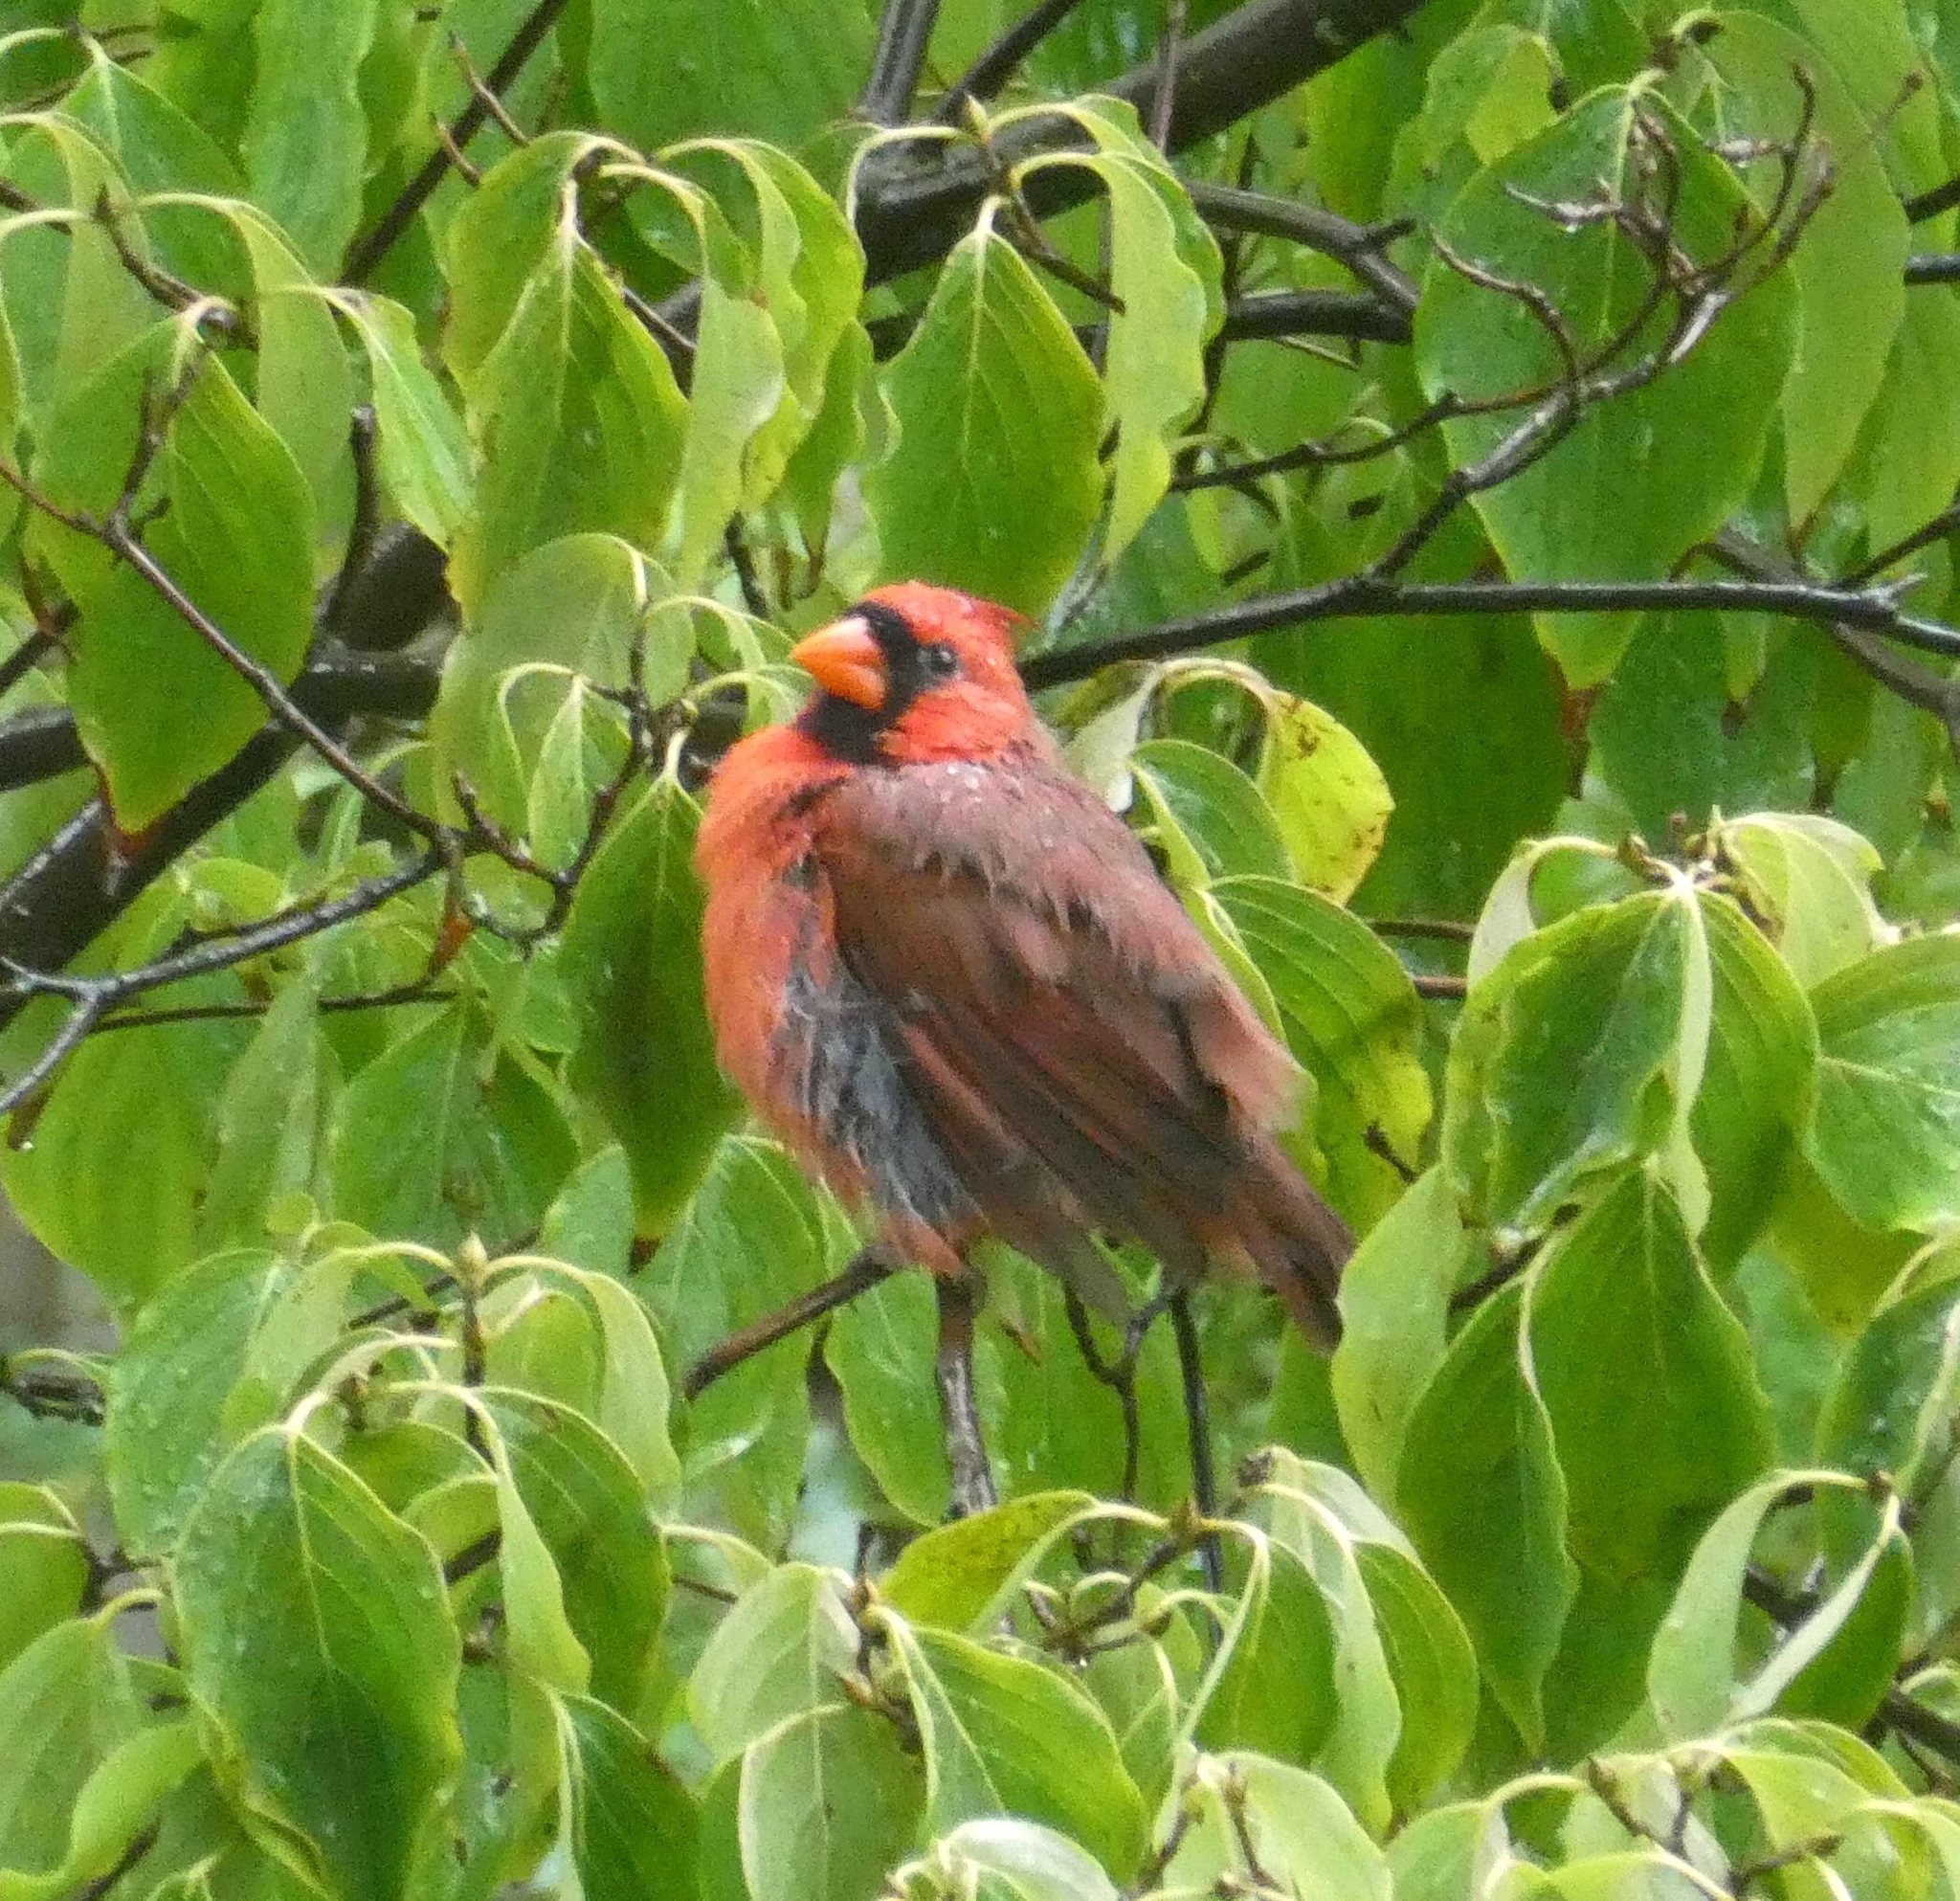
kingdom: Animalia
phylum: Chordata
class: Aves
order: Passeriformes
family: Cardinalidae
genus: Cardinalis
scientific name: Cardinalis cardinalis
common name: Northern cardinal
